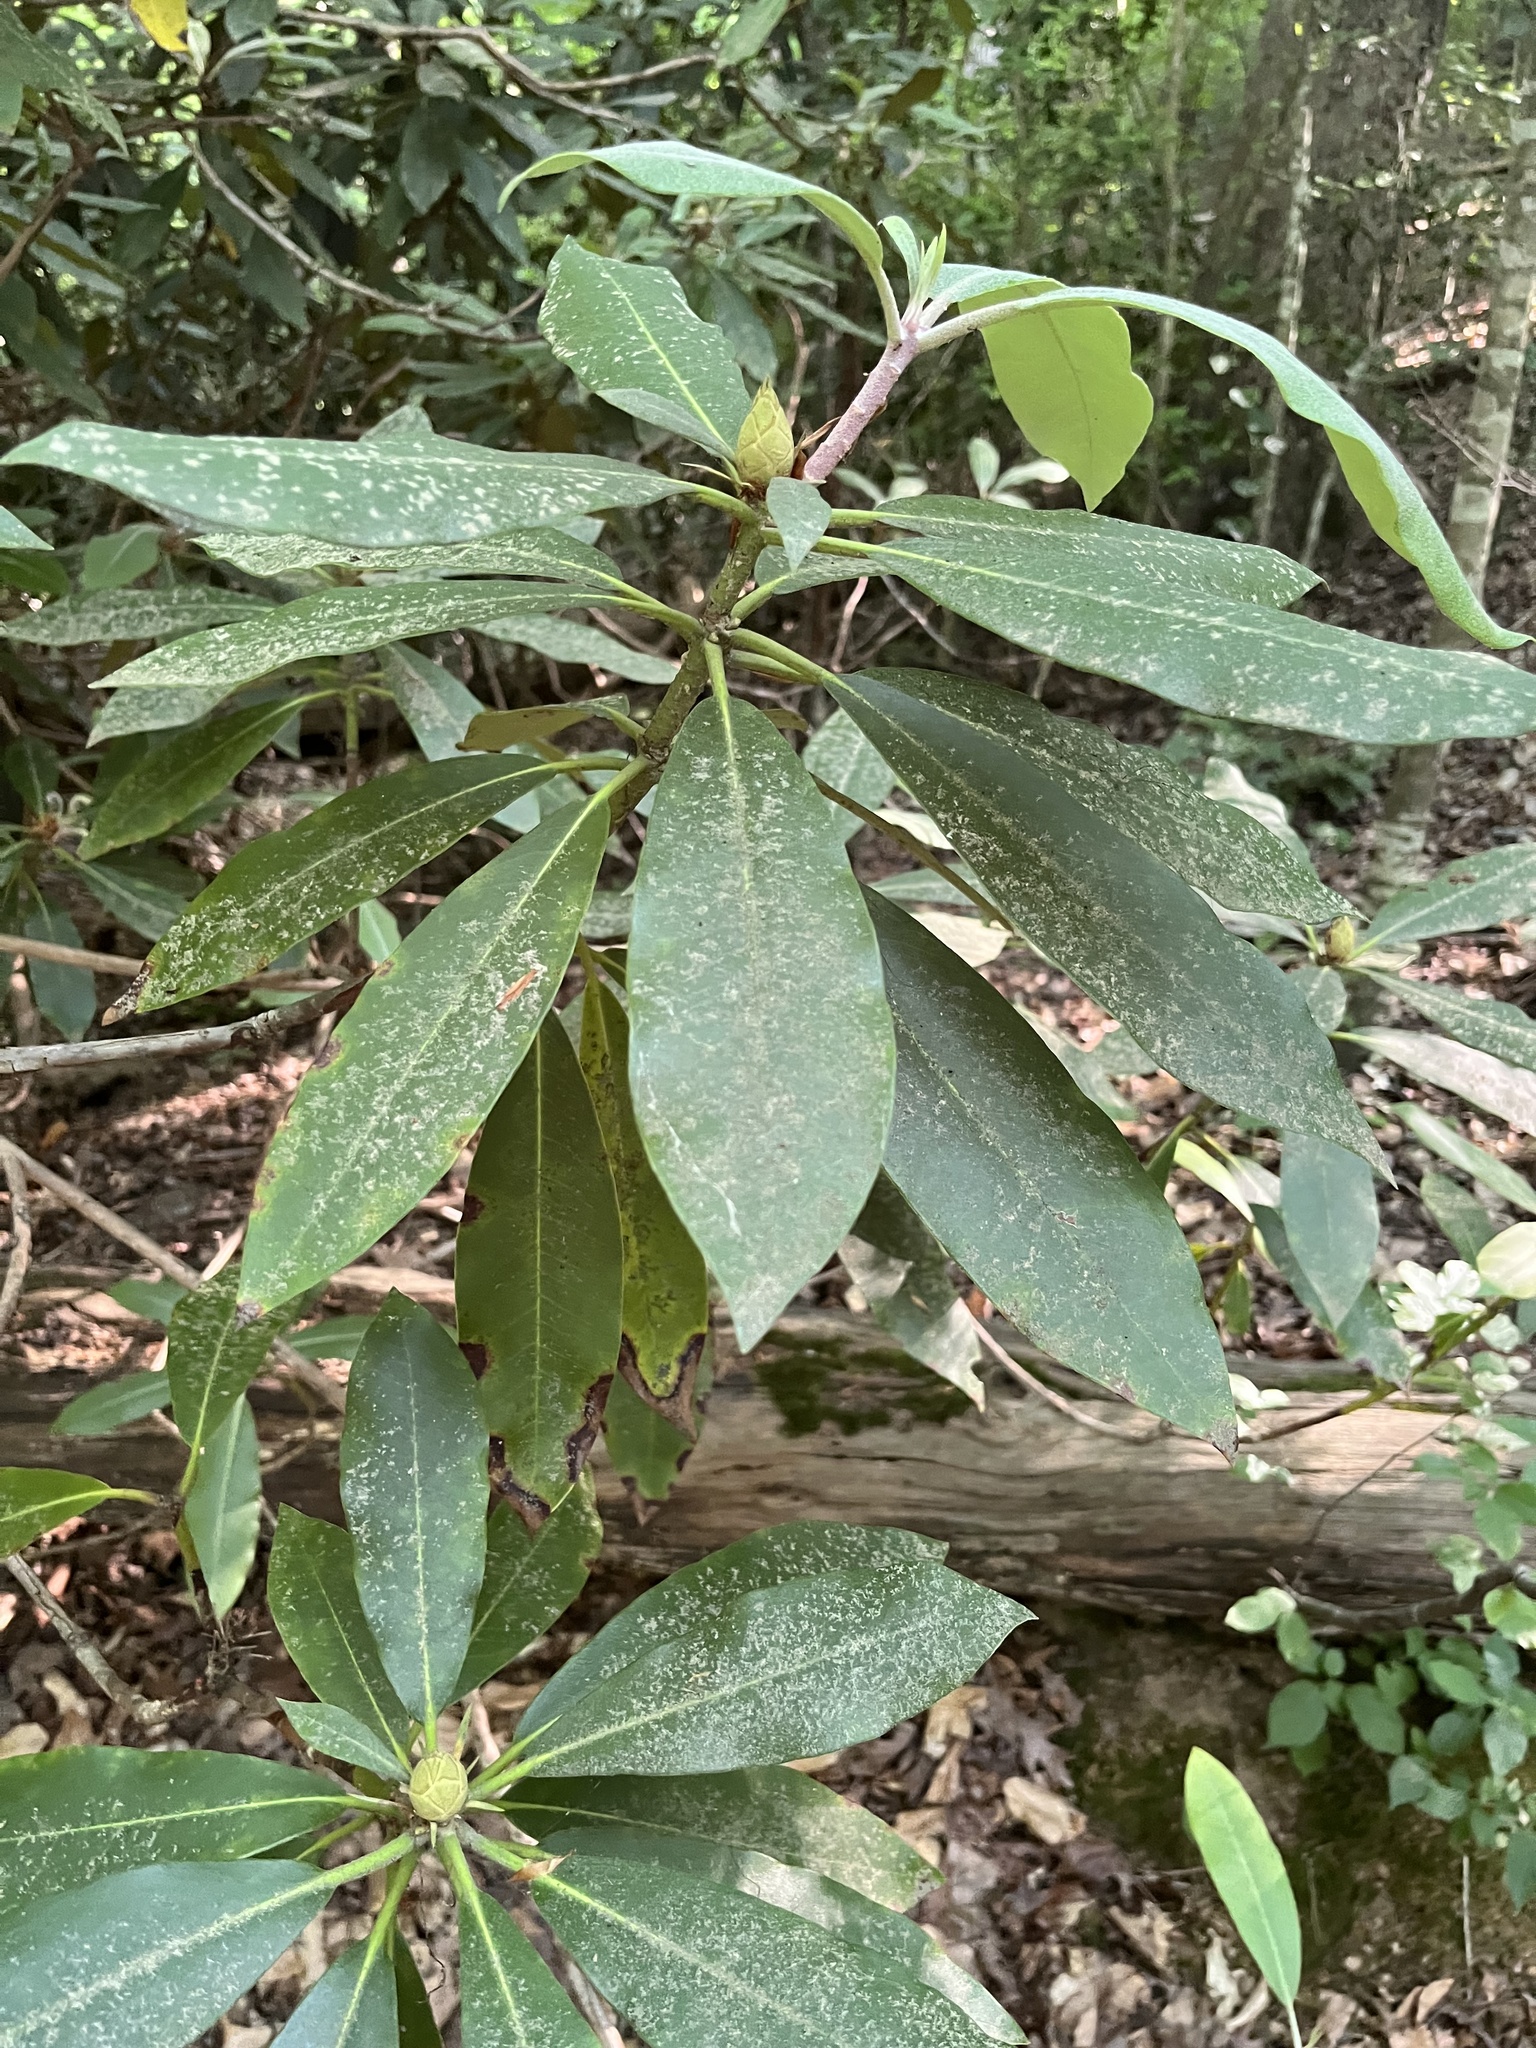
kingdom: Plantae
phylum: Tracheophyta
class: Magnoliopsida
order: Ericales
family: Ericaceae
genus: Rhododendron
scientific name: Rhododendron maximum
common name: Great rhododendron
